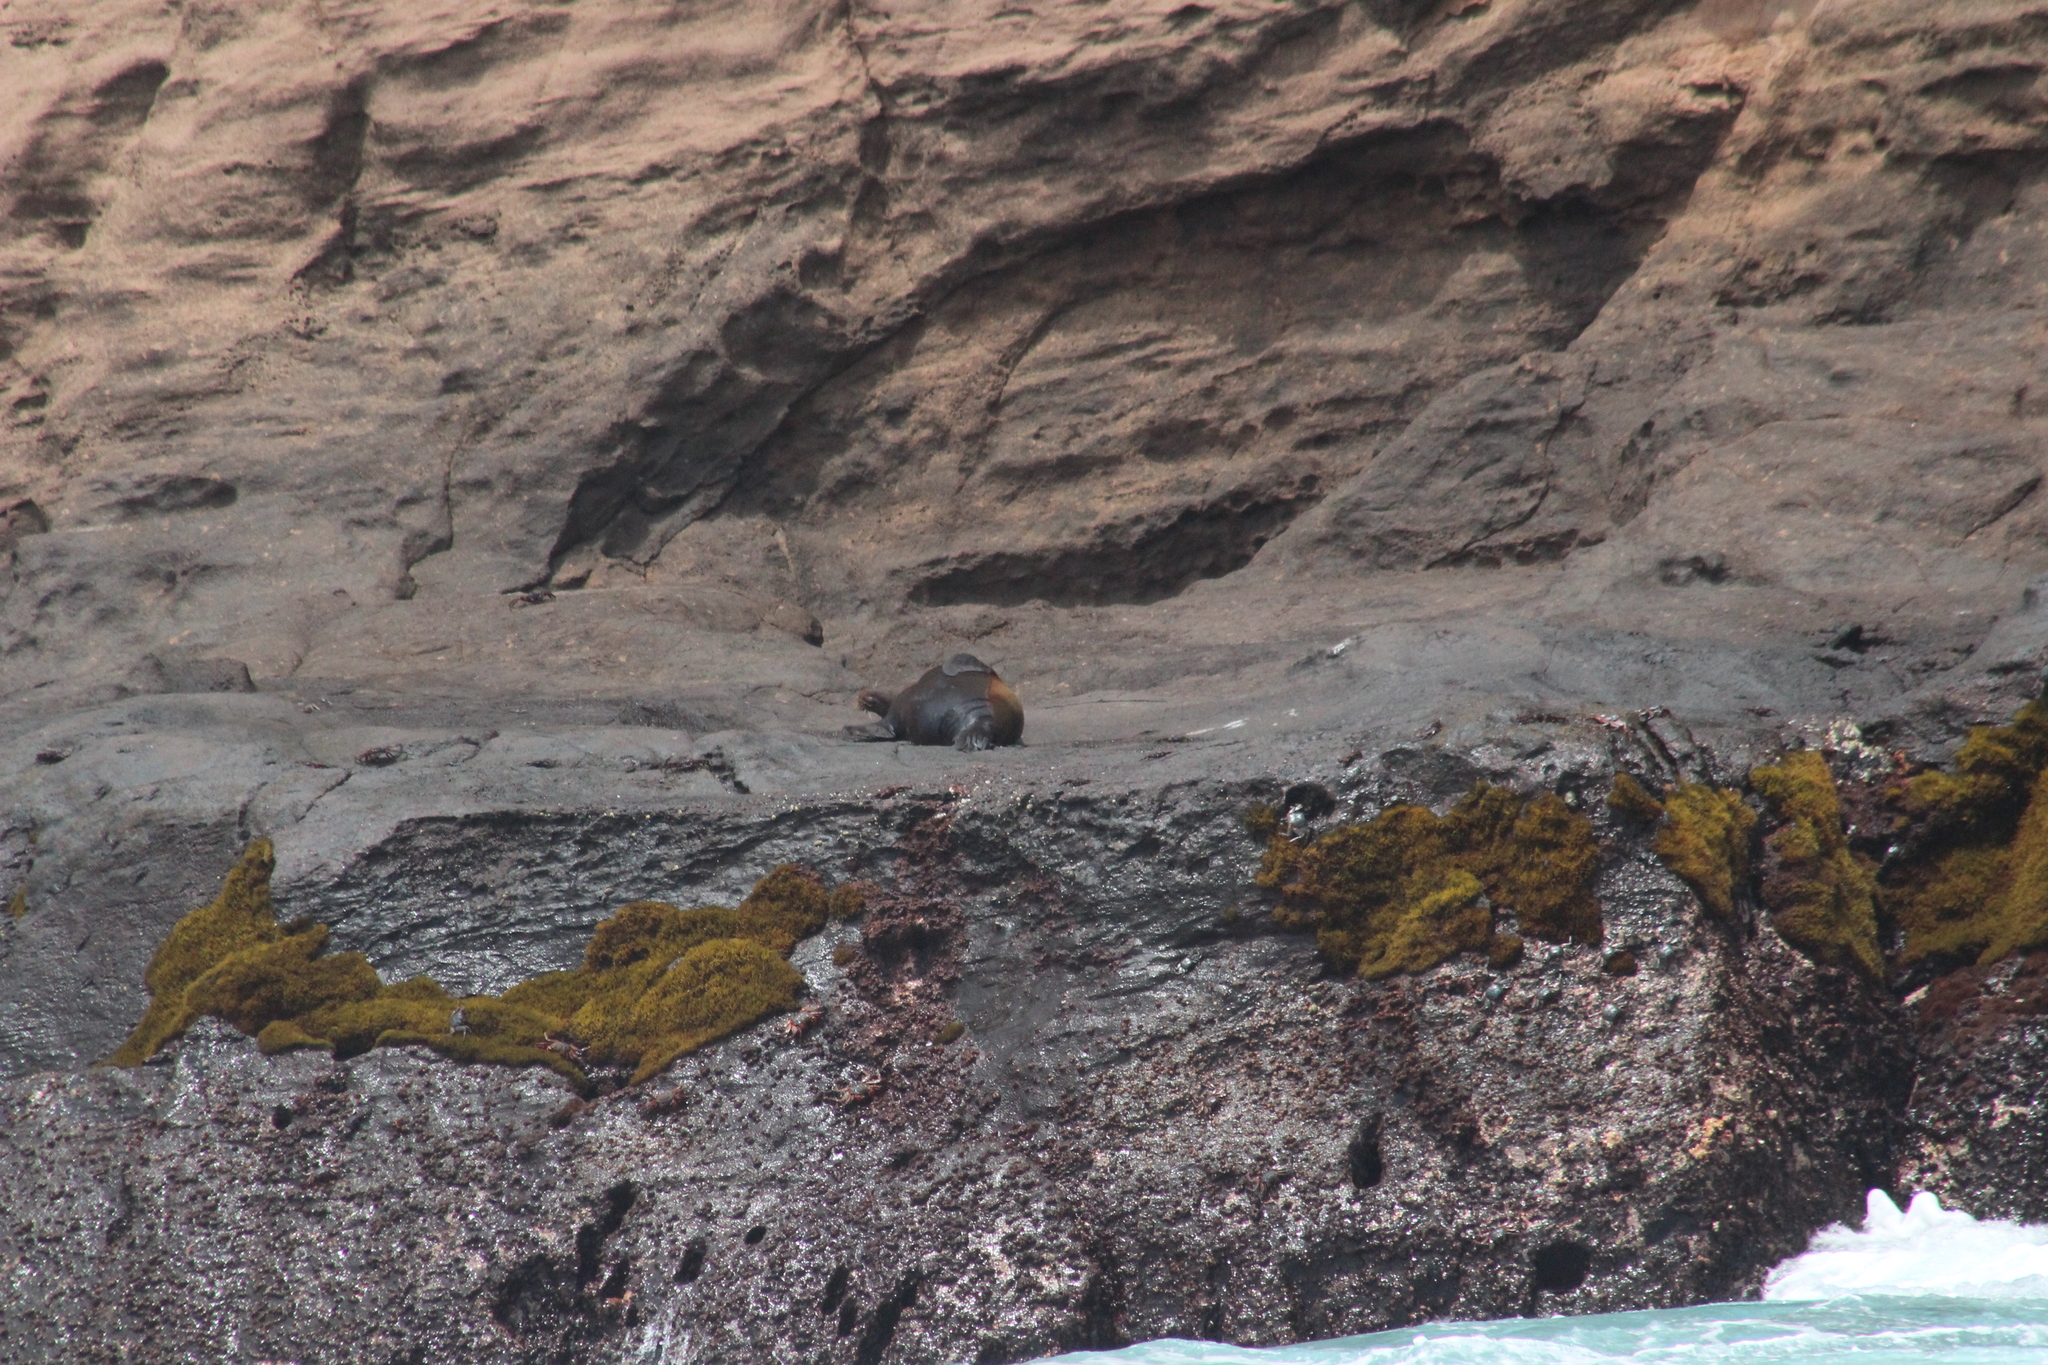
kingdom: Animalia
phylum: Chordata
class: Mammalia
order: Carnivora
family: Otariidae
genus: Zalophus
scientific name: Zalophus wollebaeki
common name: Galapagos sea lion
